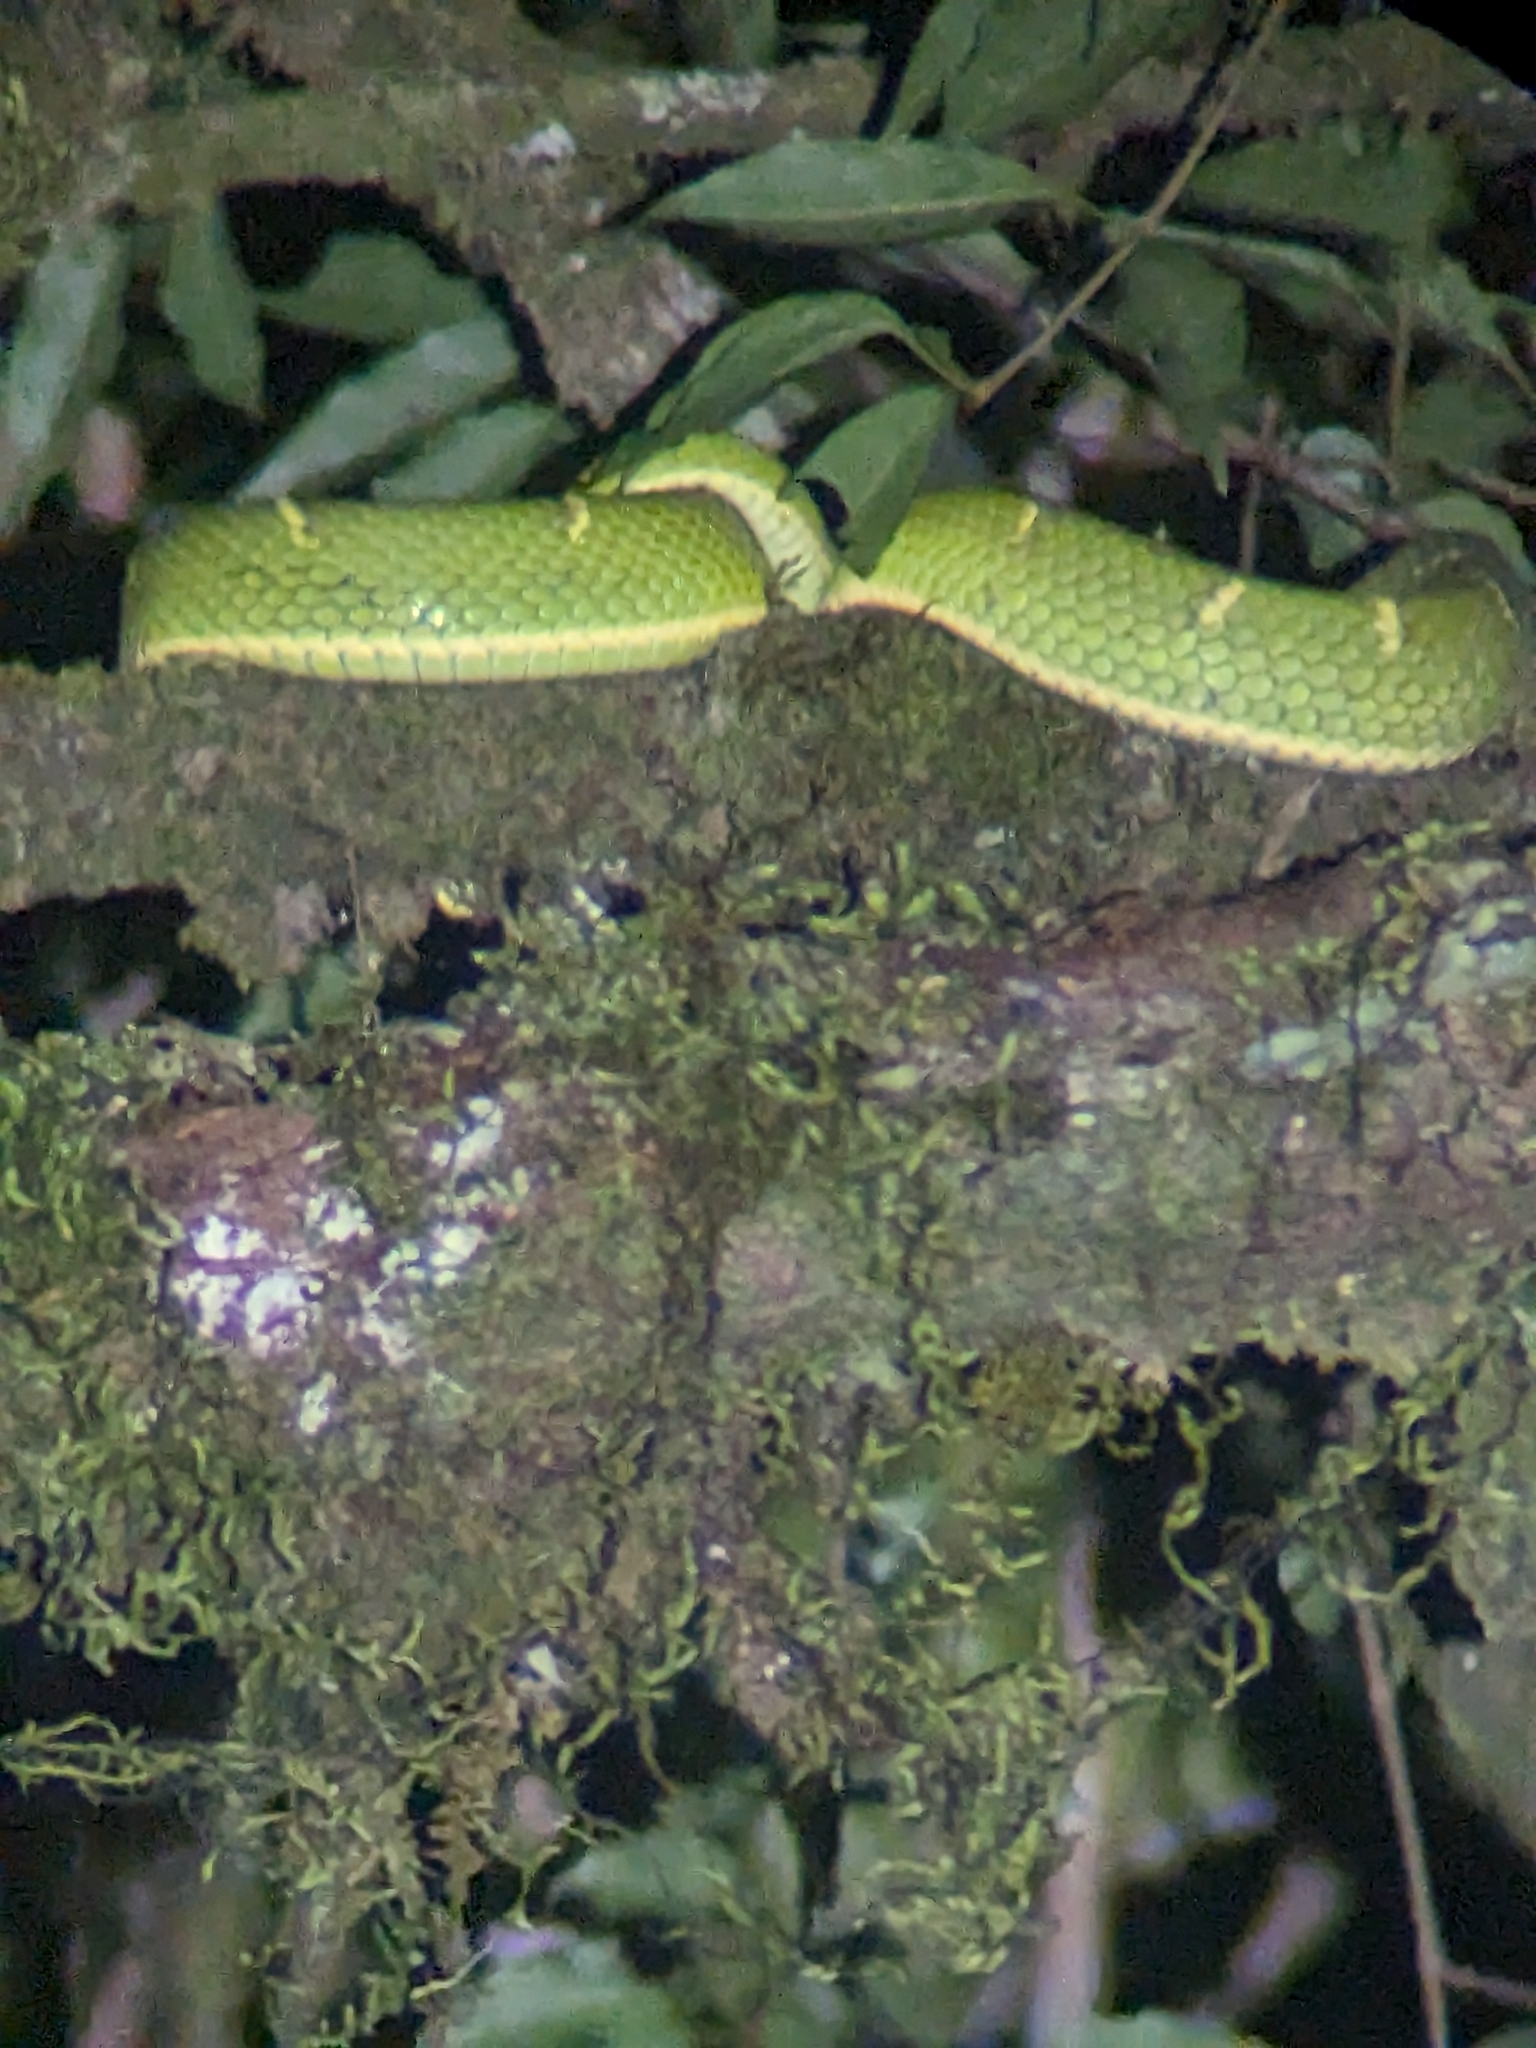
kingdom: Animalia
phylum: Chordata
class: Squamata
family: Viperidae
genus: Bothriechis
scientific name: Bothriechis lateralis
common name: Coffee palm viper
